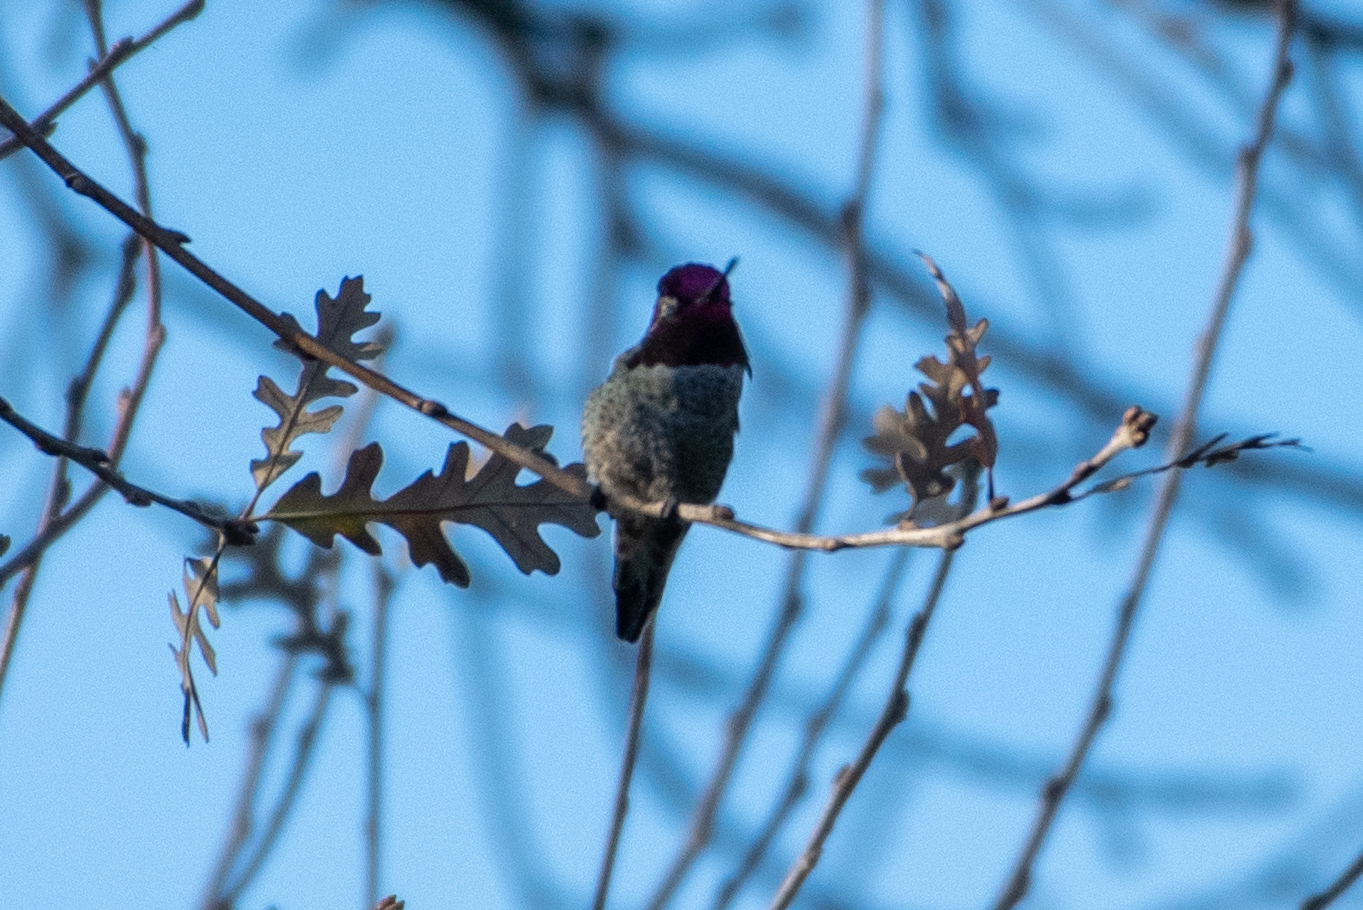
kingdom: Animalia
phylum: Chordata
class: Aves
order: Apodiformes
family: Trochilidae
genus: Calypte
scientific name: Calypte anna
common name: Anna's hummingbird
